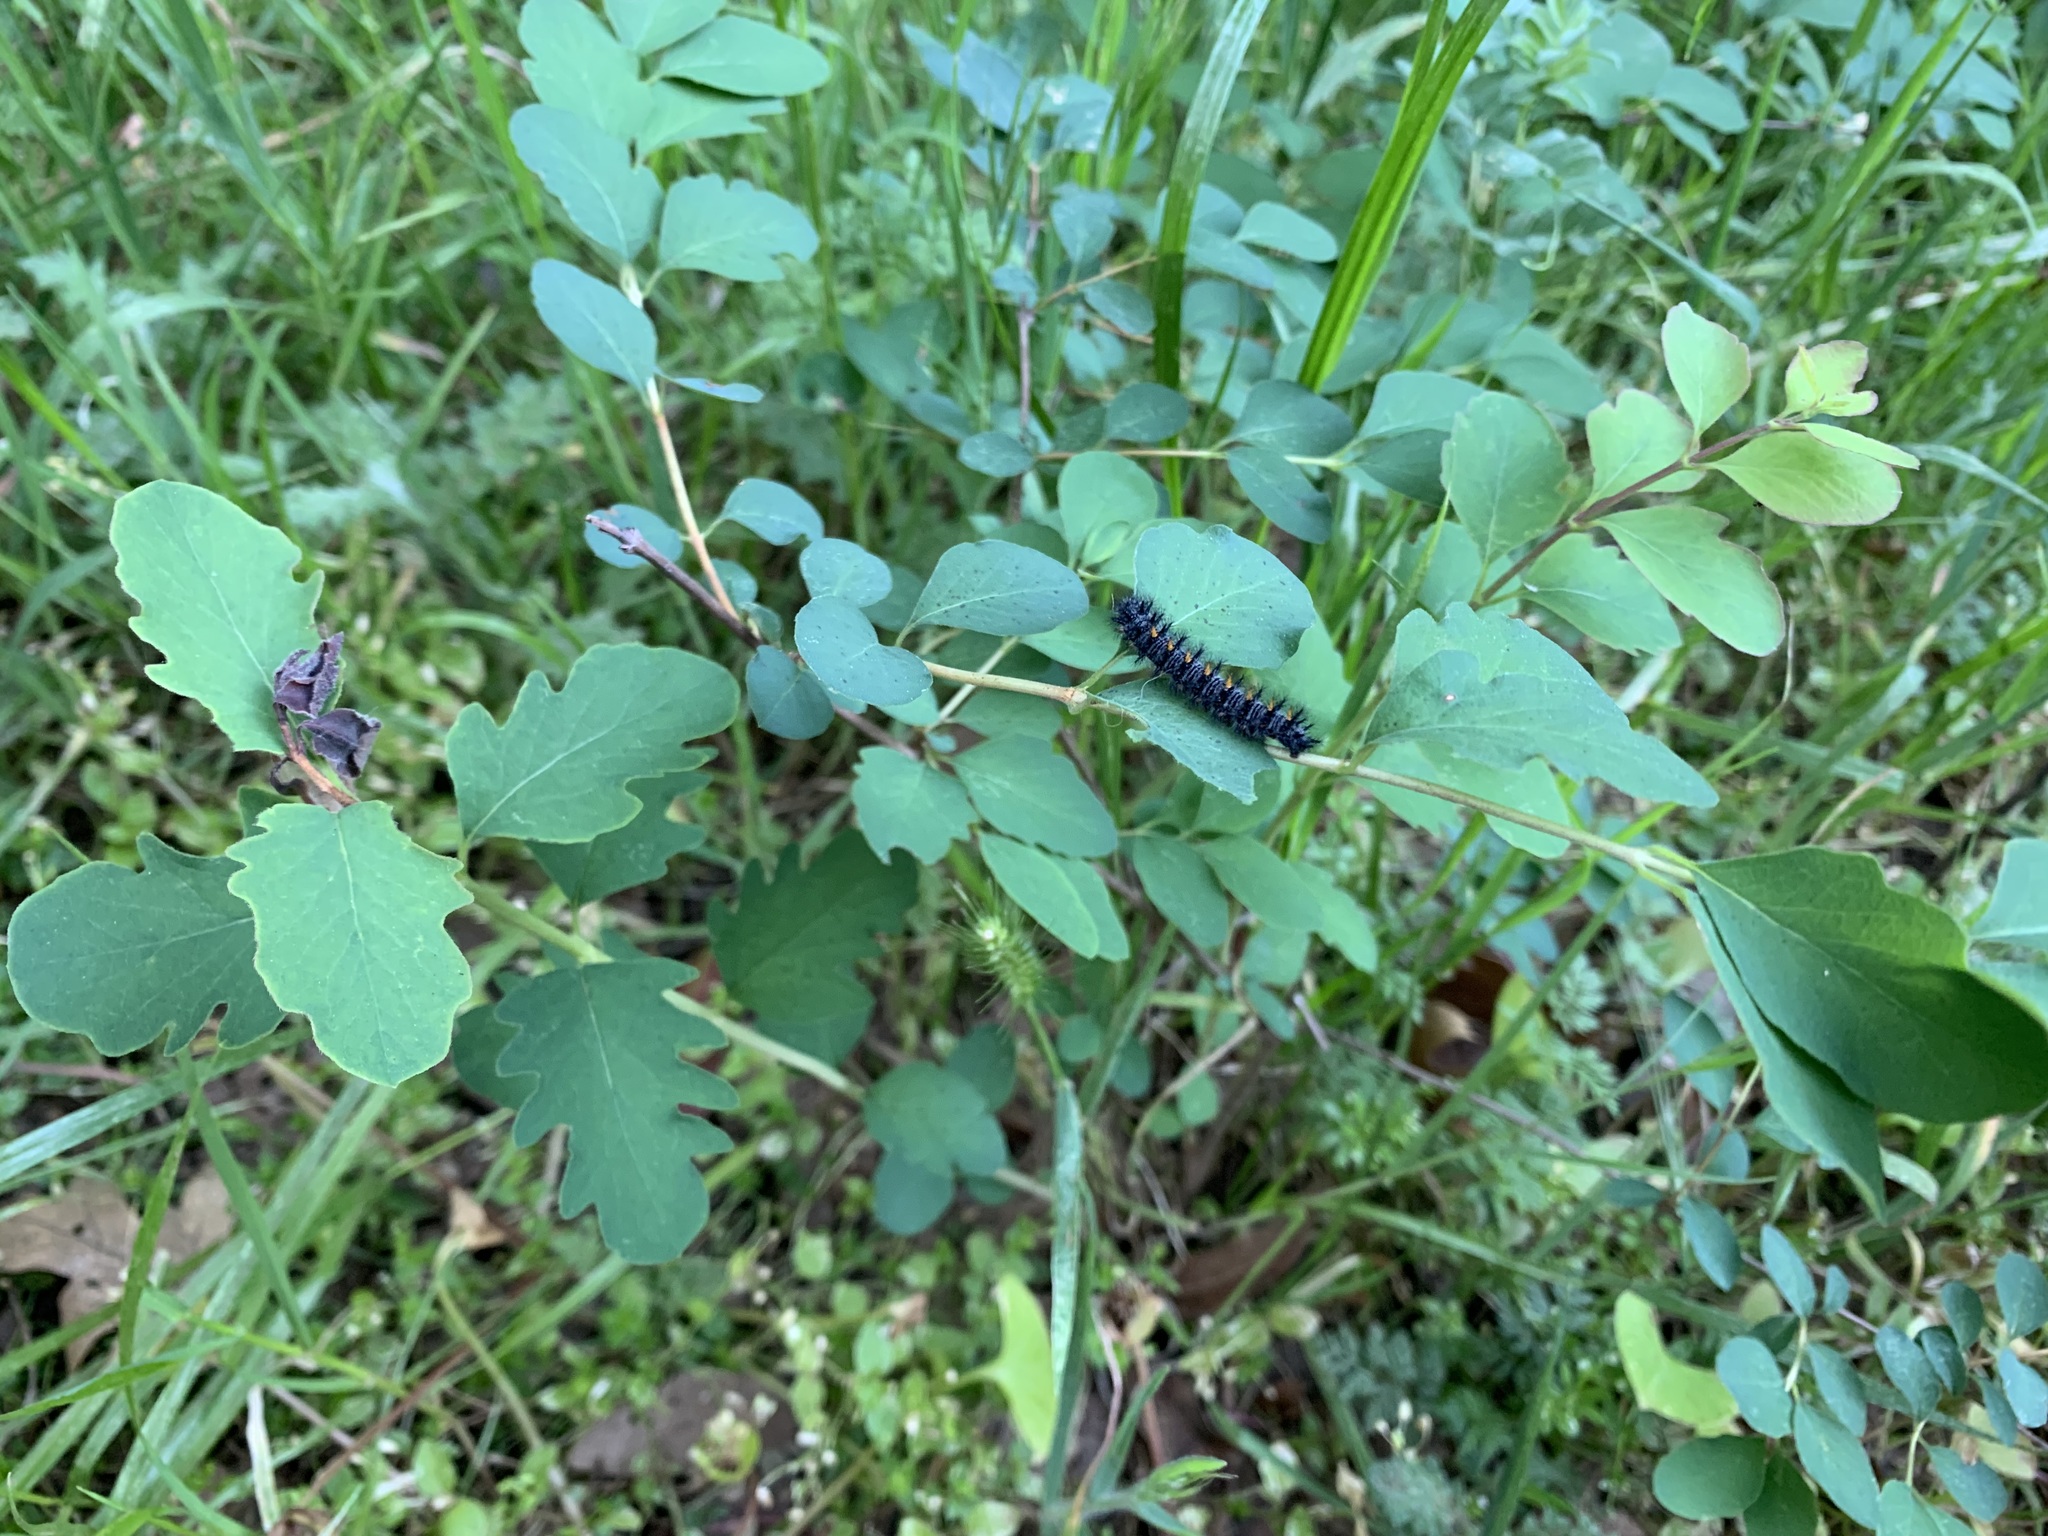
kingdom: Animalia
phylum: Arthropoda
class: Insecta
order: Lepidoptera
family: Nymphalidae
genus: Occidryas
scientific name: Occidryas chalcedona
